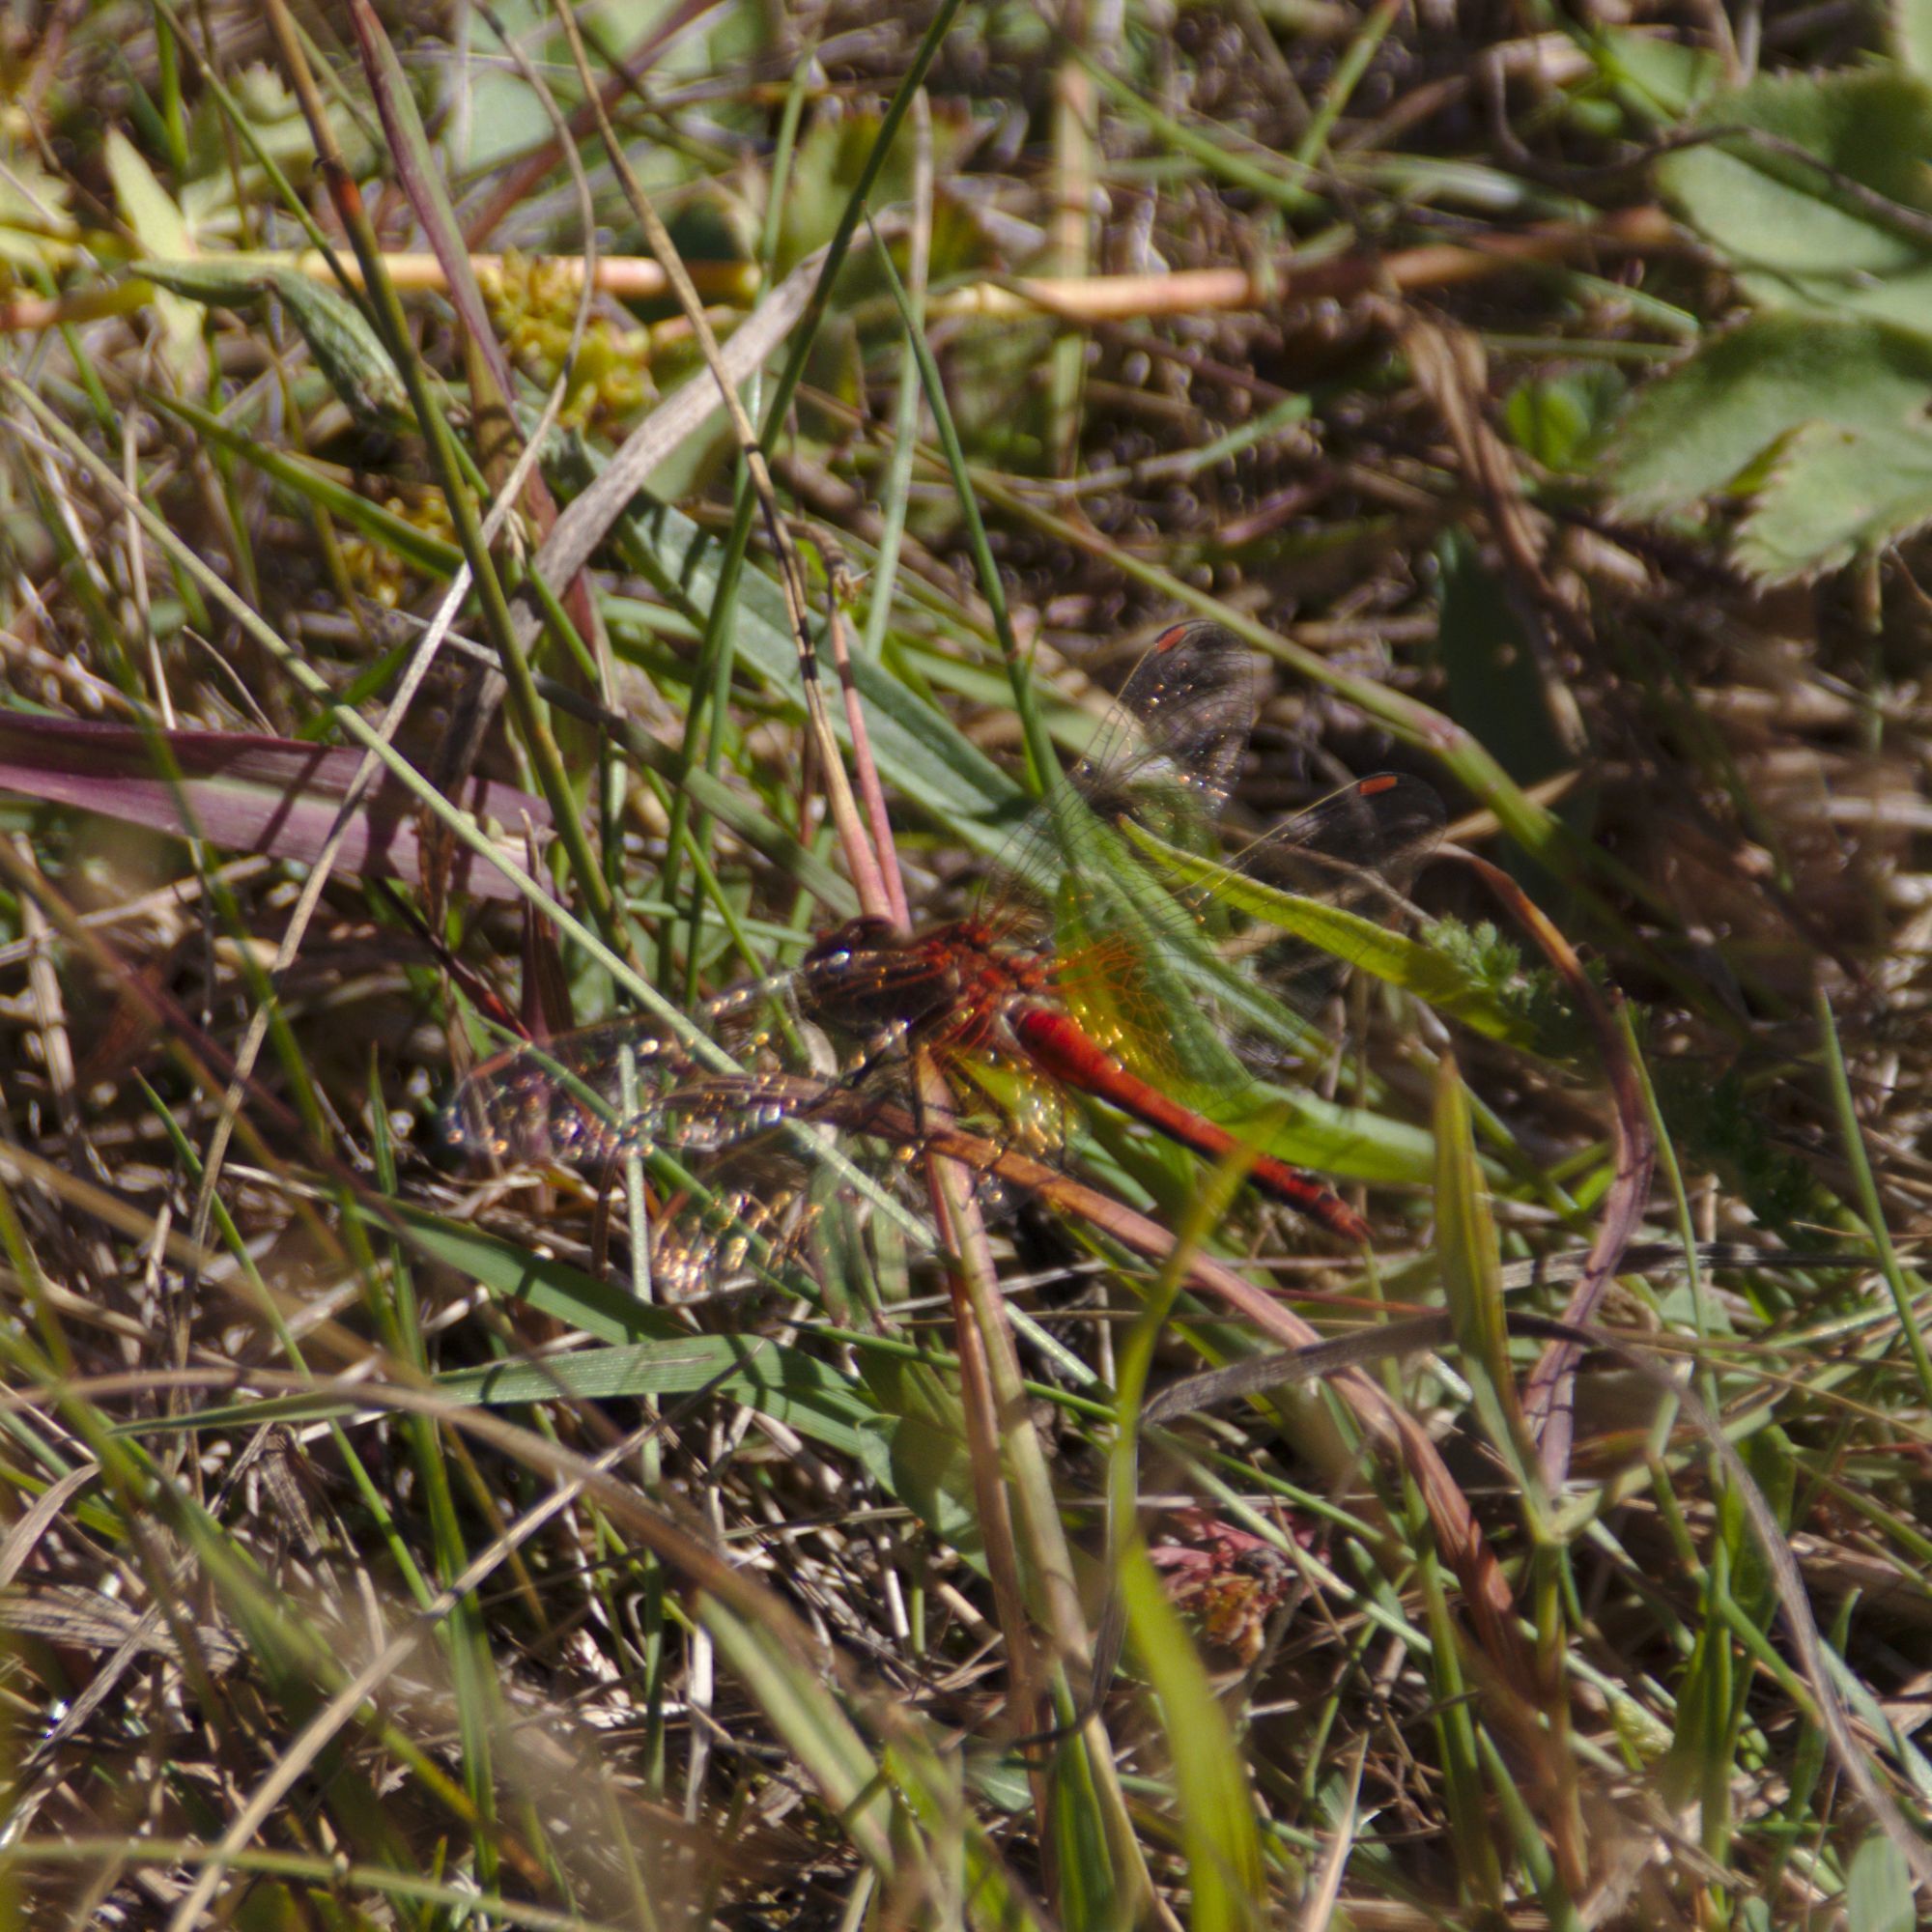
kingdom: Animalia
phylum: Arthropoda
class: Insecta
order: Odonata
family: Libellulidae
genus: Sympetrum
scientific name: Sympetrum flaveolum
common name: Yellow-winged darter
